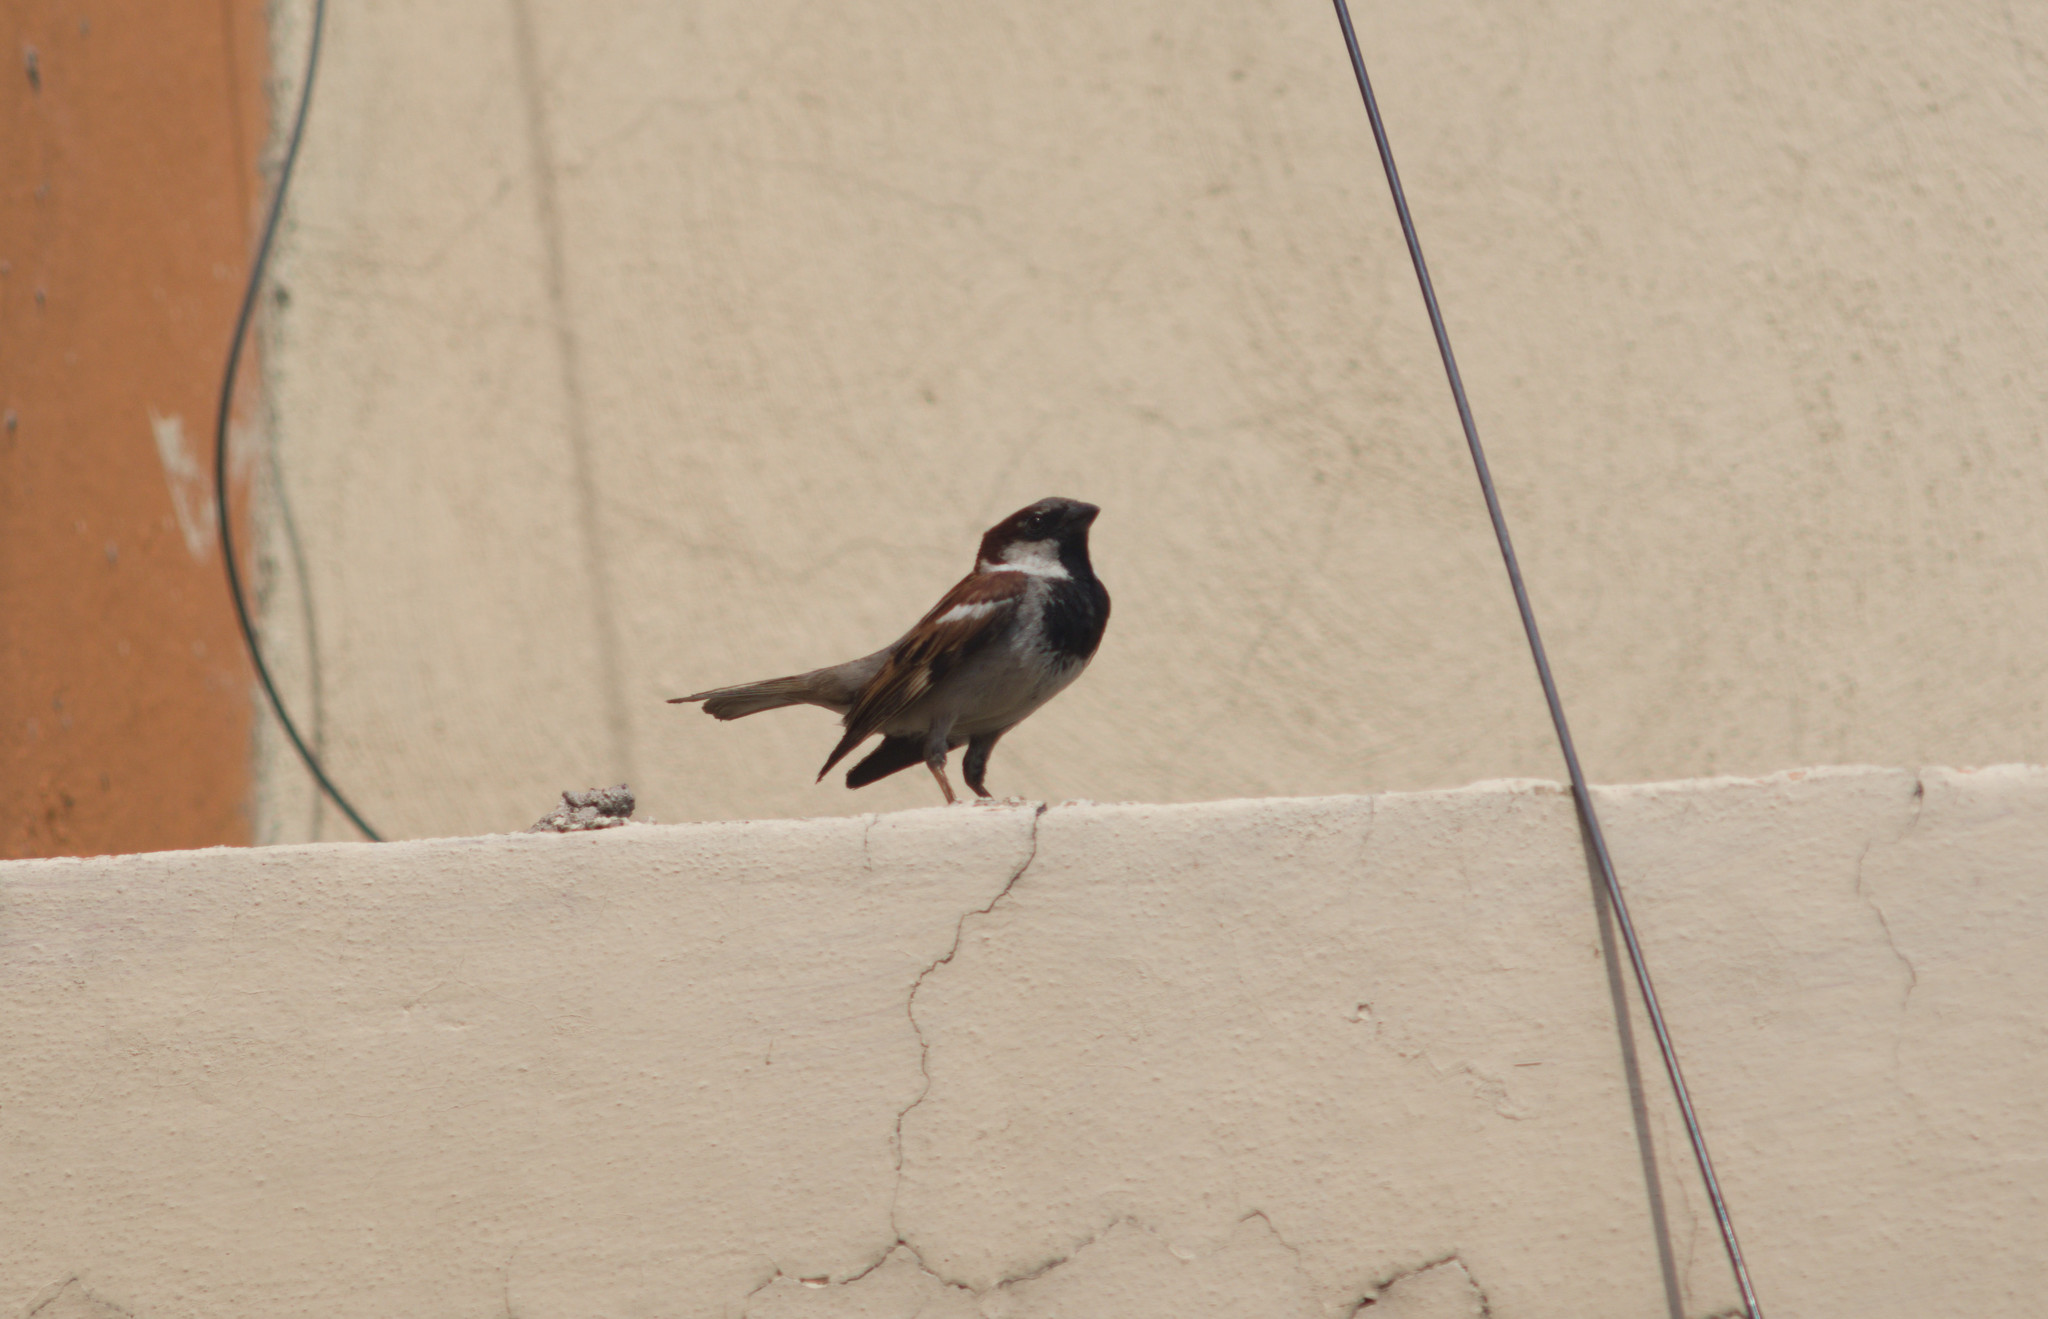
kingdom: Animalia
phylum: Chordata
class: Aves
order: Passeriformes
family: Passeridae
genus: Passer
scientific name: Passer domesticus
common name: House sparrow
